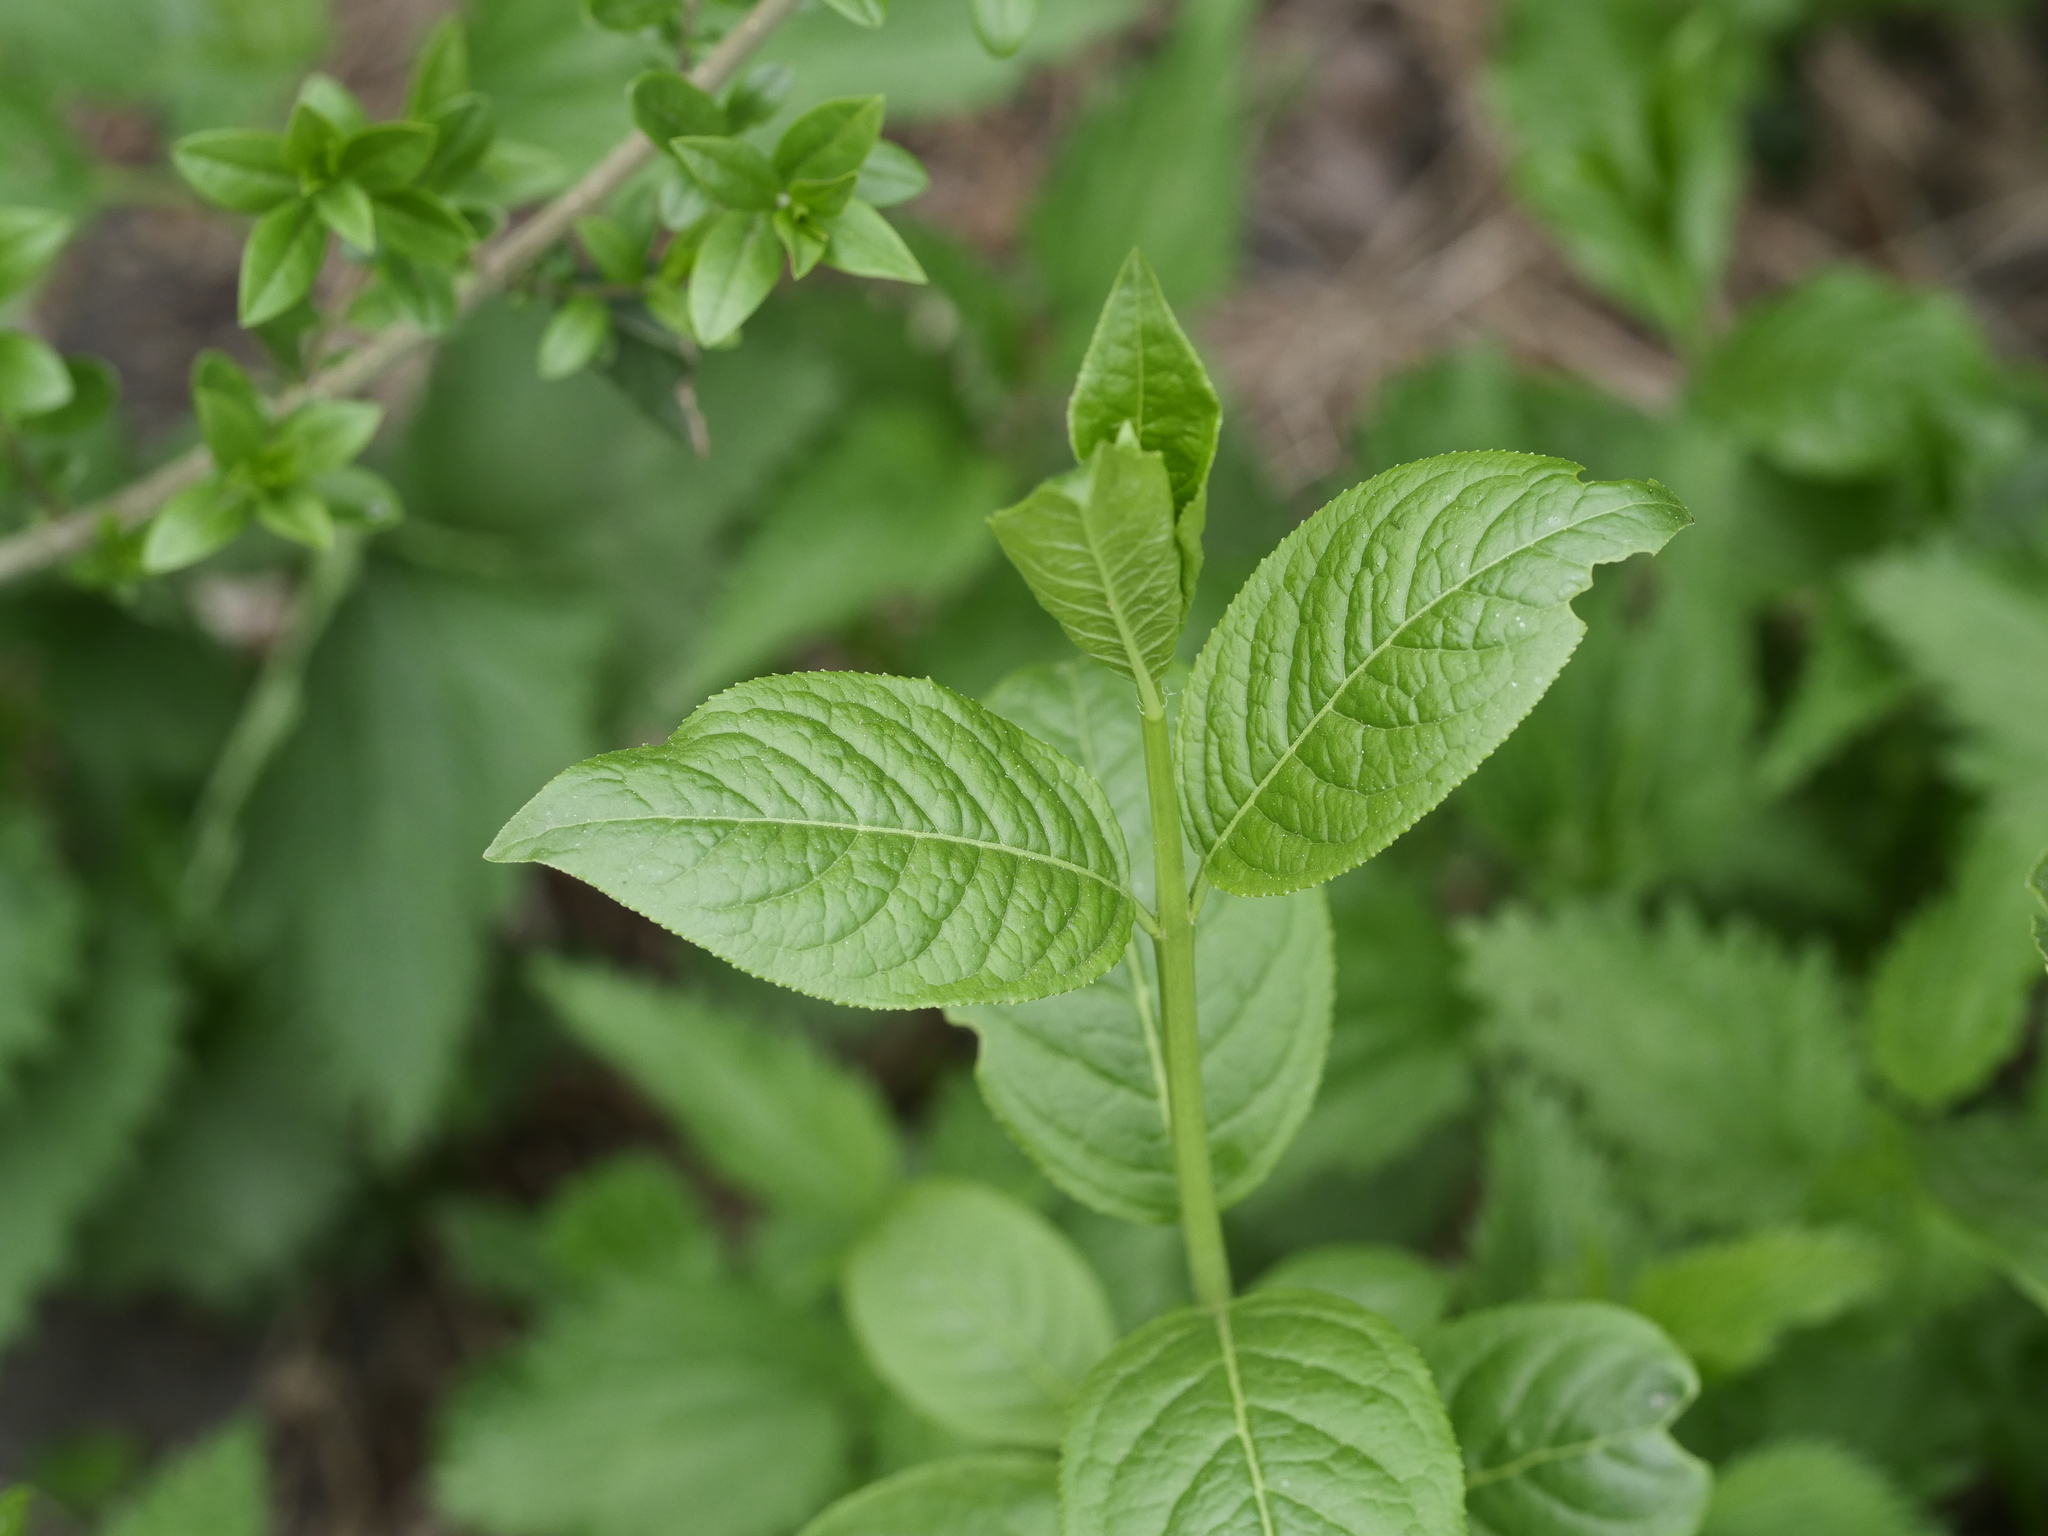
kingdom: Plantae
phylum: Tracheophyta
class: Magnoliopsida
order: Celastrales
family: Celastraceae
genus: Euonymus
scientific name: Euonymus europaeus
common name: Spindle
